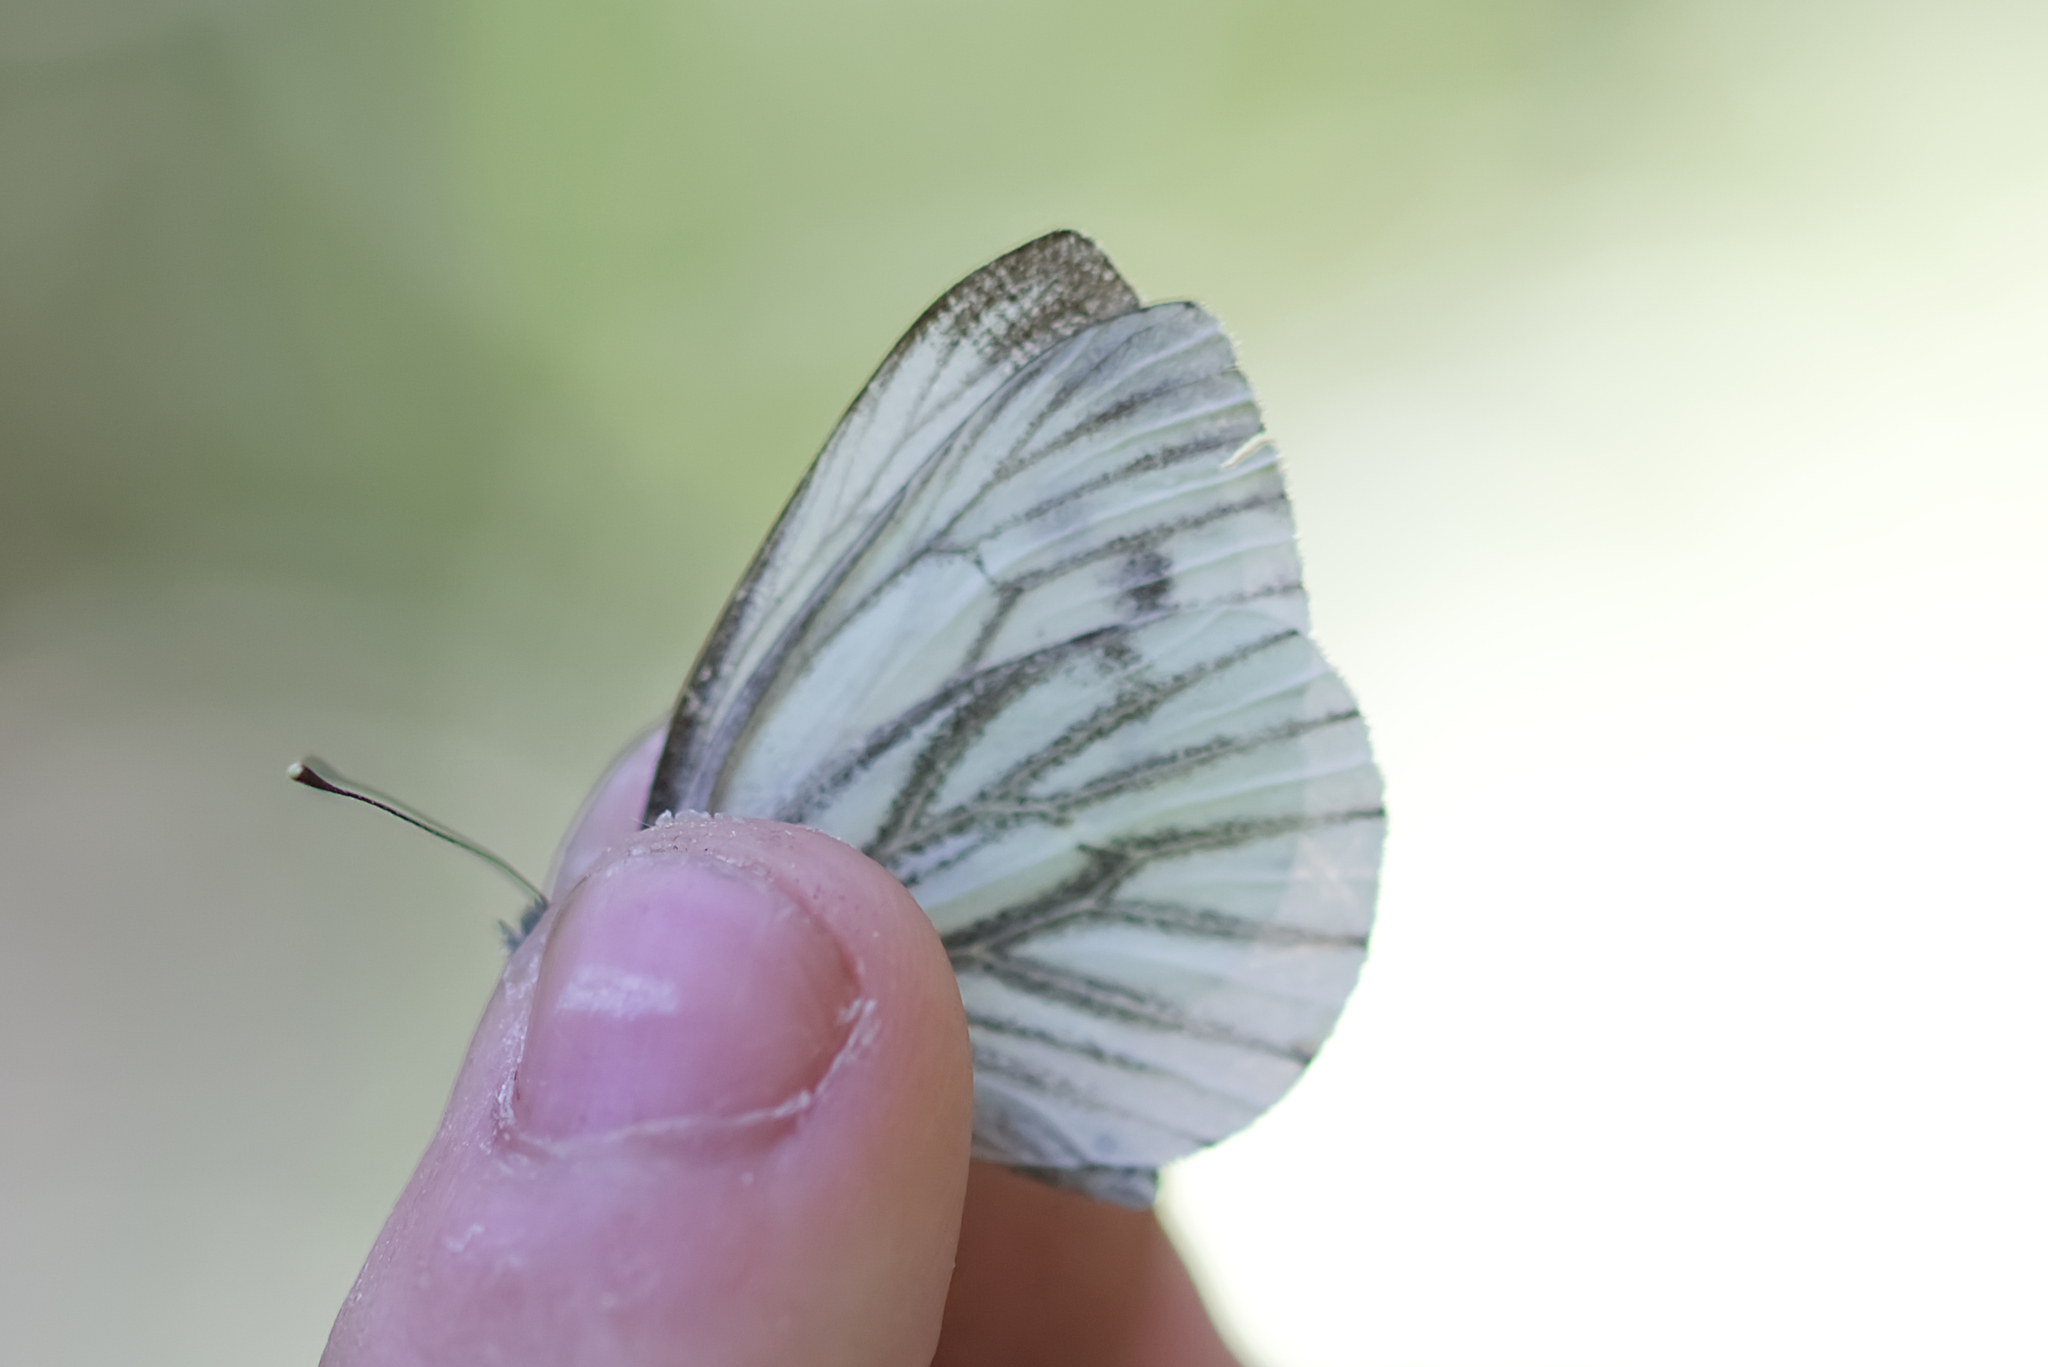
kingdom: Animalia
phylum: Arthropoda
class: Insecta
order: Lepidoptera
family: Pieridae
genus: Pieris
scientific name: Pieris napi
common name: Green-veined white
